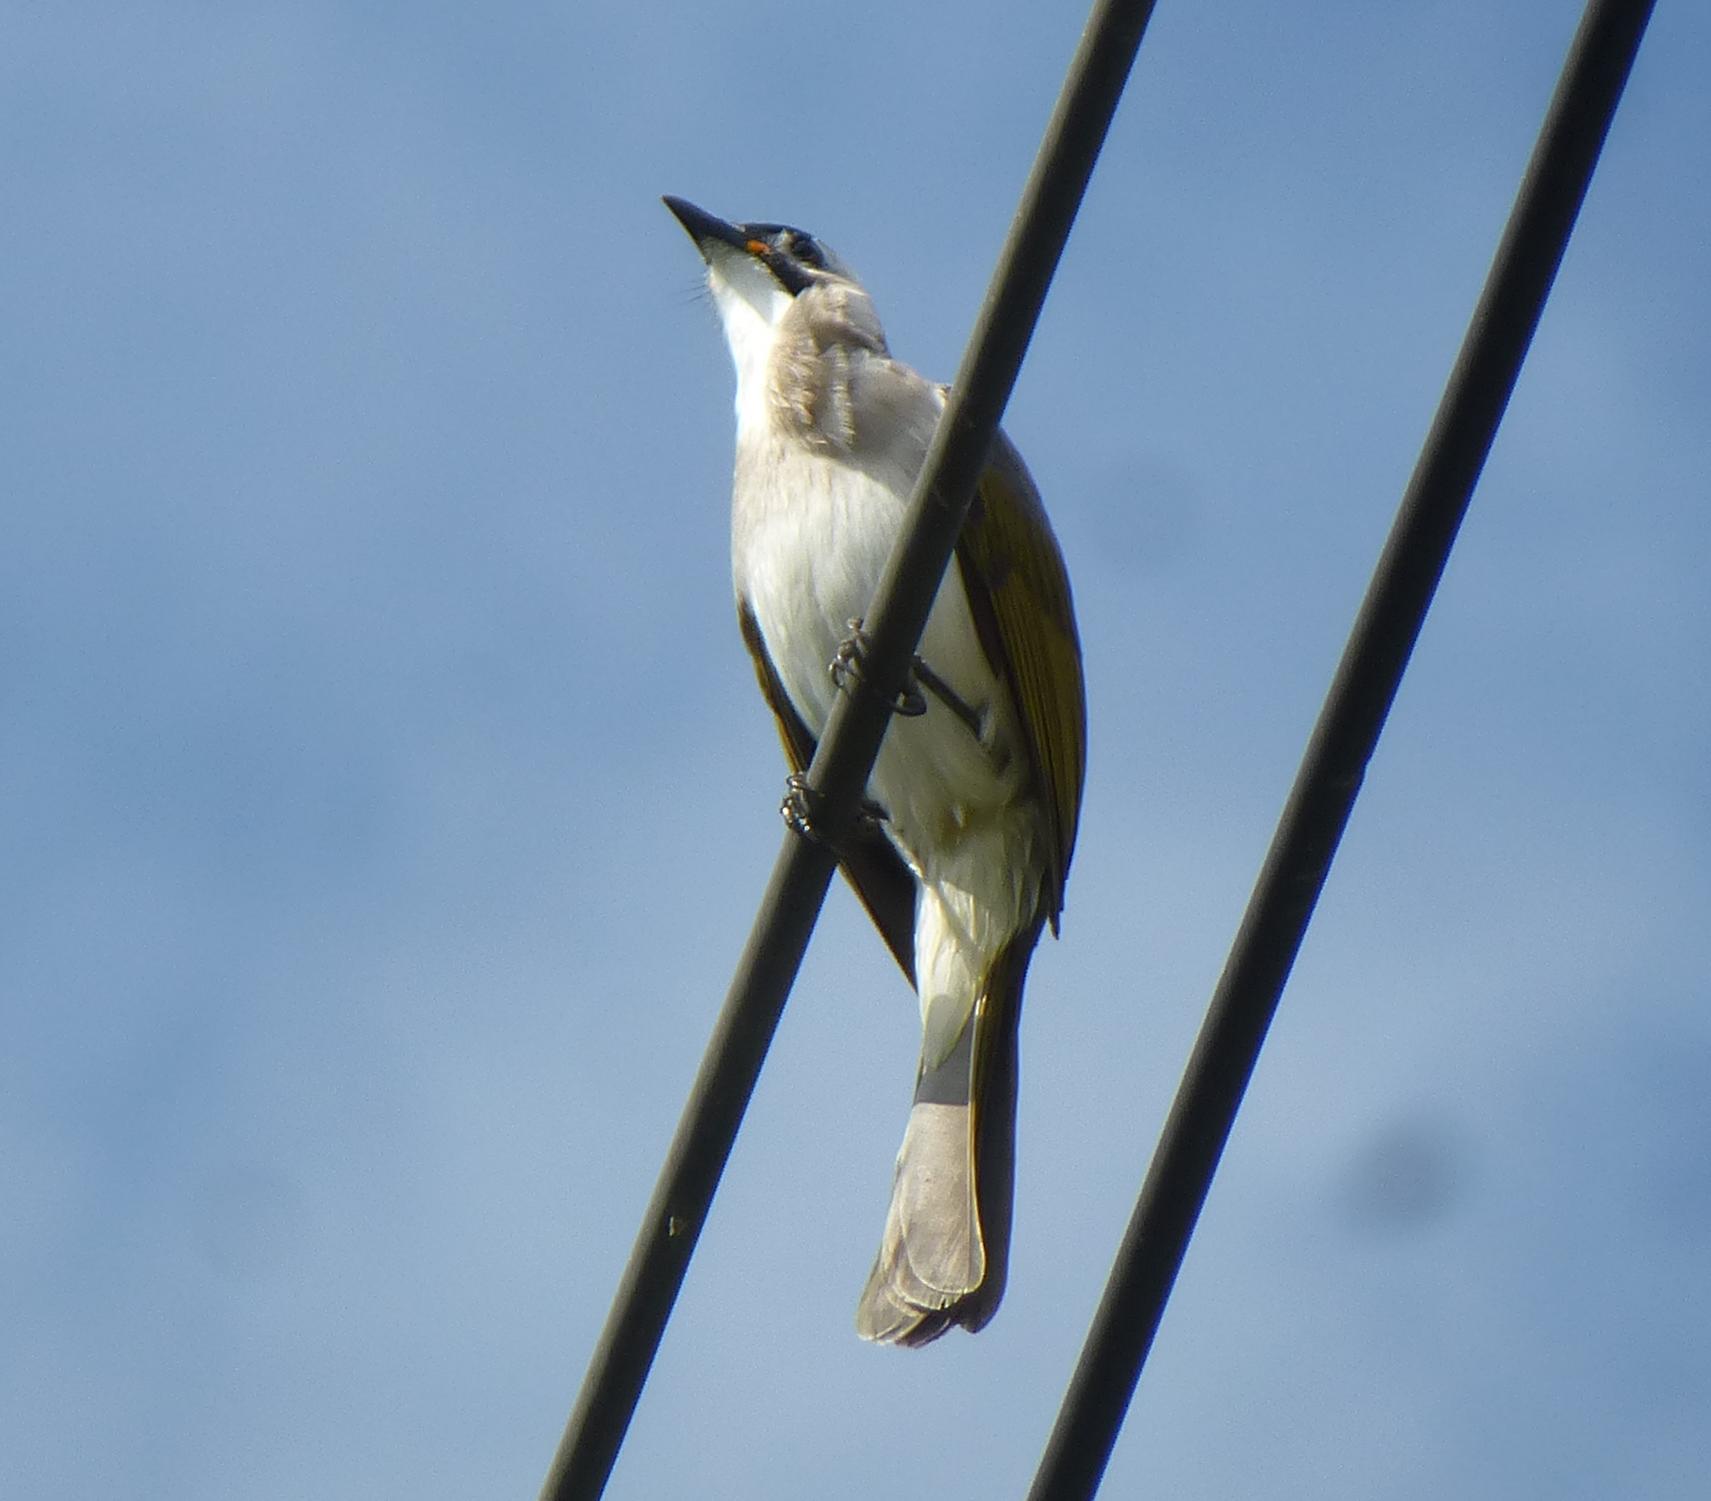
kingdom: Animalia
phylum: Chordata
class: Aves
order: Passeriformes
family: Pycnonotidae
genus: Pycnonotus
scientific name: Pycnonotus taivanus
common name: Styan's bulbul
